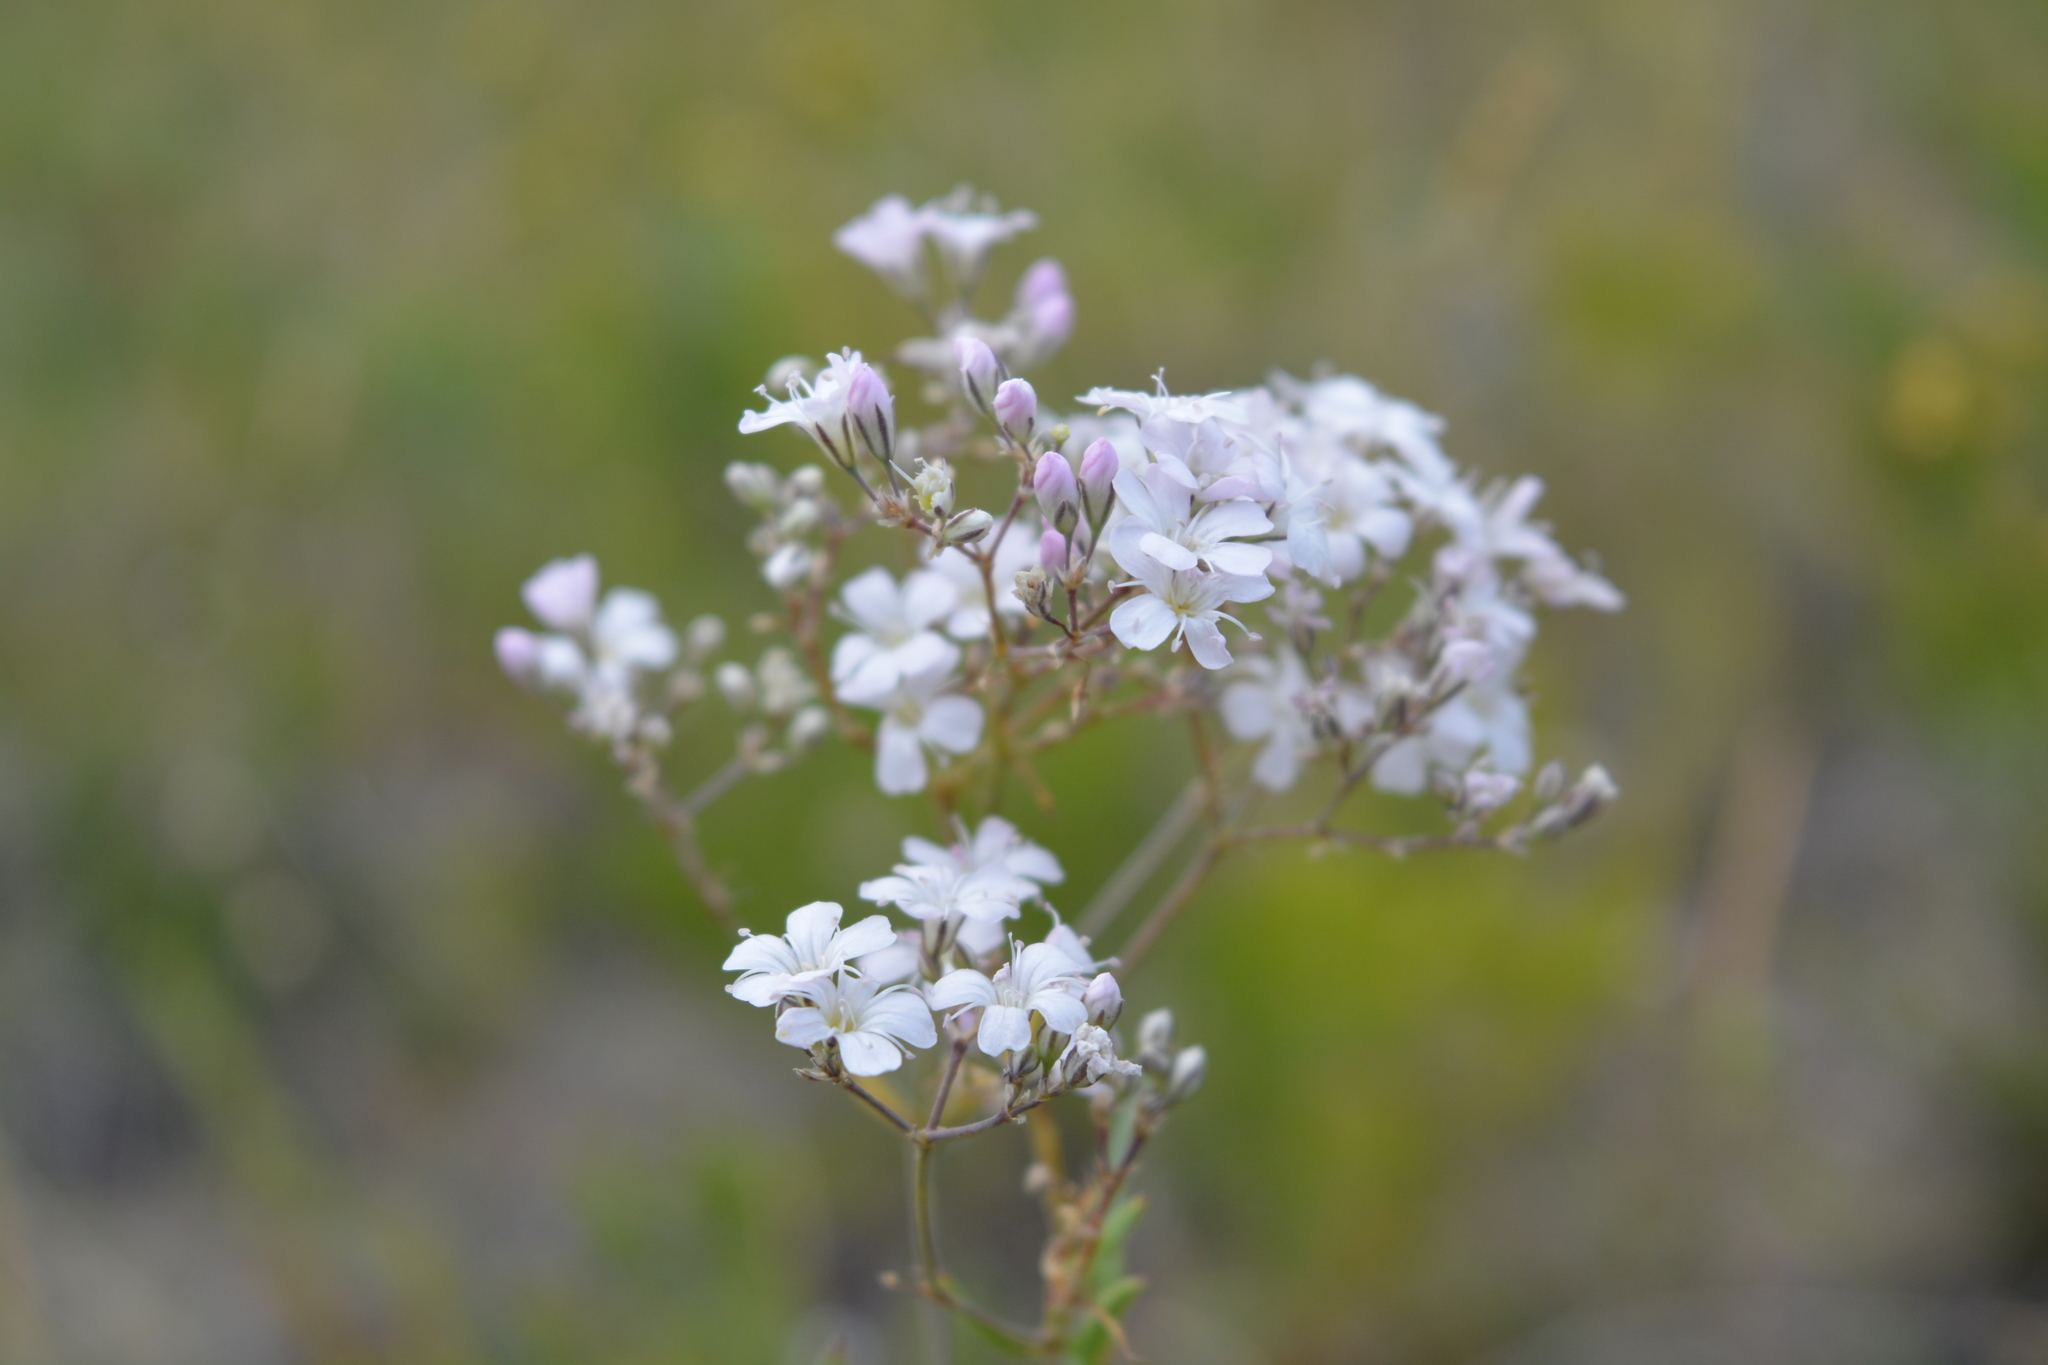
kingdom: Plantae
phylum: Tracheophyta
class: Magnoliopsida
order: Caryophyllales
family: Caryophyllaceae
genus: Gypsophila
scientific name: Gypsophila davurica
